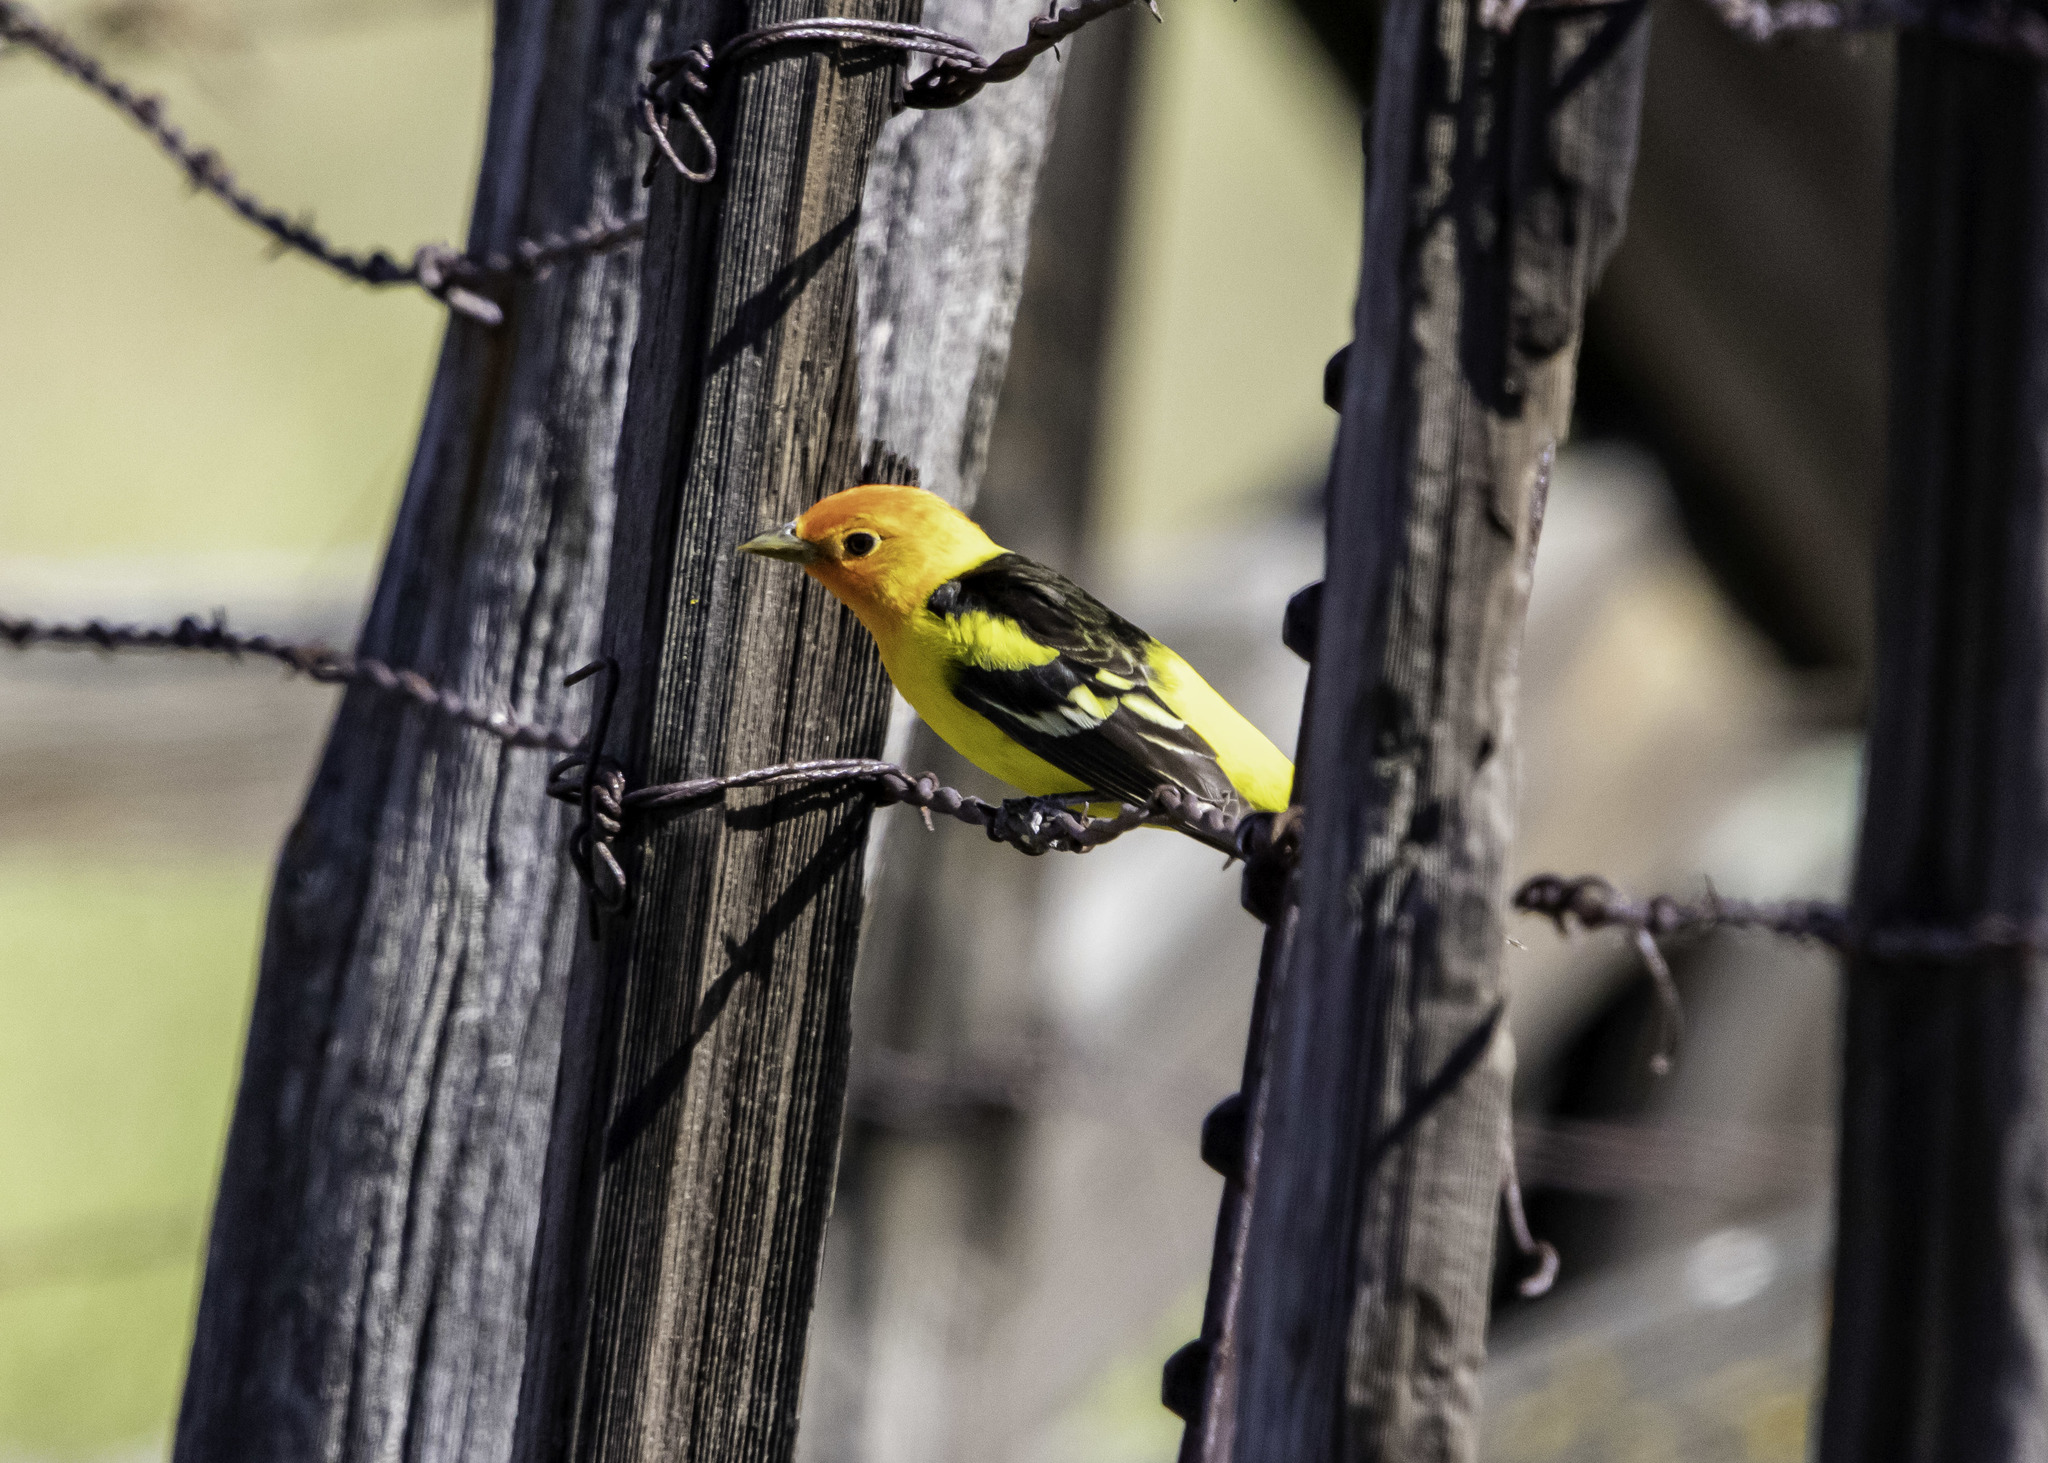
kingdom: Animalia
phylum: Chordata
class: Aves
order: Passeriformes
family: Cardinalidae
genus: Piranga
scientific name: Piranga ludoviciana
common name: Western tanager
